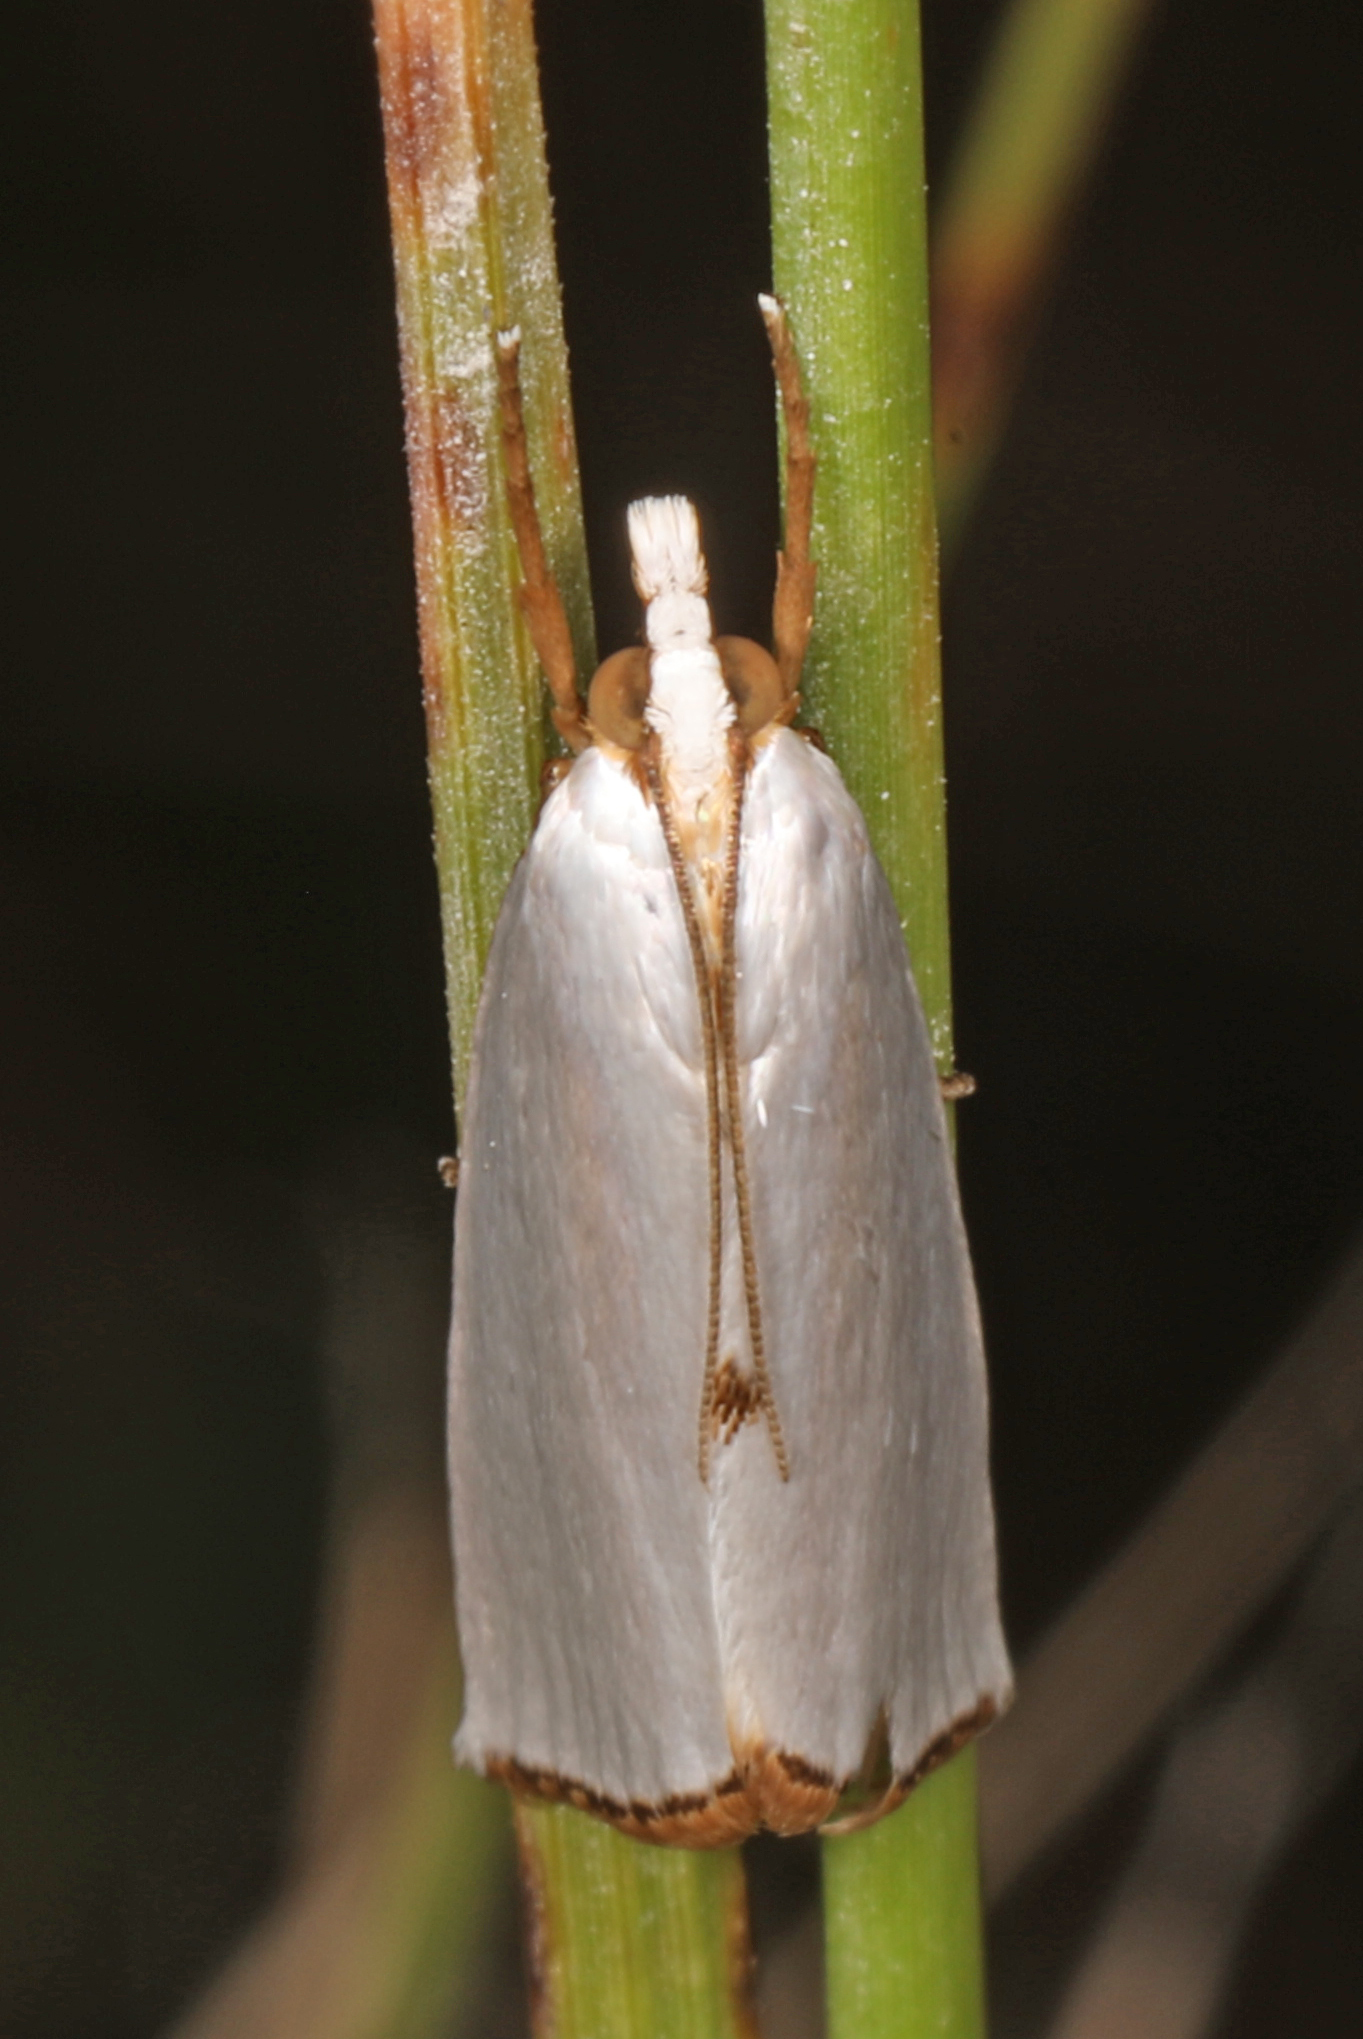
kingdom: Animalia
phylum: Arthropoda
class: Insecta
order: Lepidoptera
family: Crambidae
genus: Argyria
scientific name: Argyria nivalis
